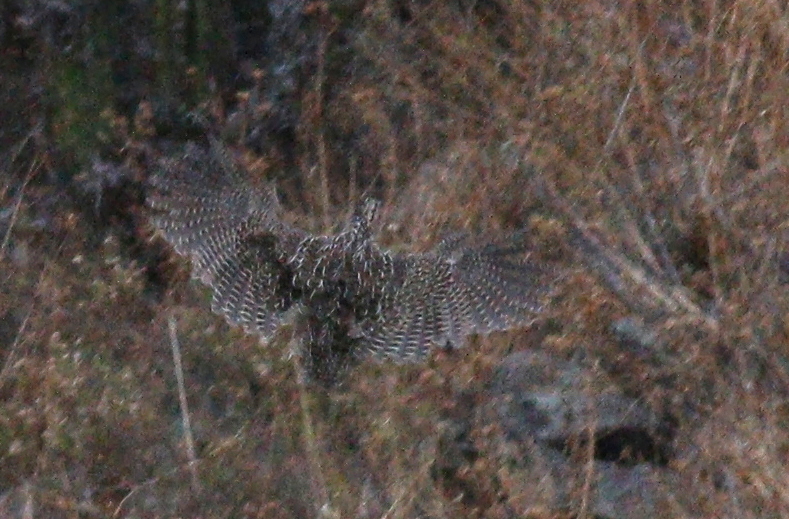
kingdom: Animalia
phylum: Chordata
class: Aves
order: Tinamiformes
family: Tinamidae
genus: Nothoprocta
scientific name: Nothoprocta pentlandii
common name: Andean tinamou
